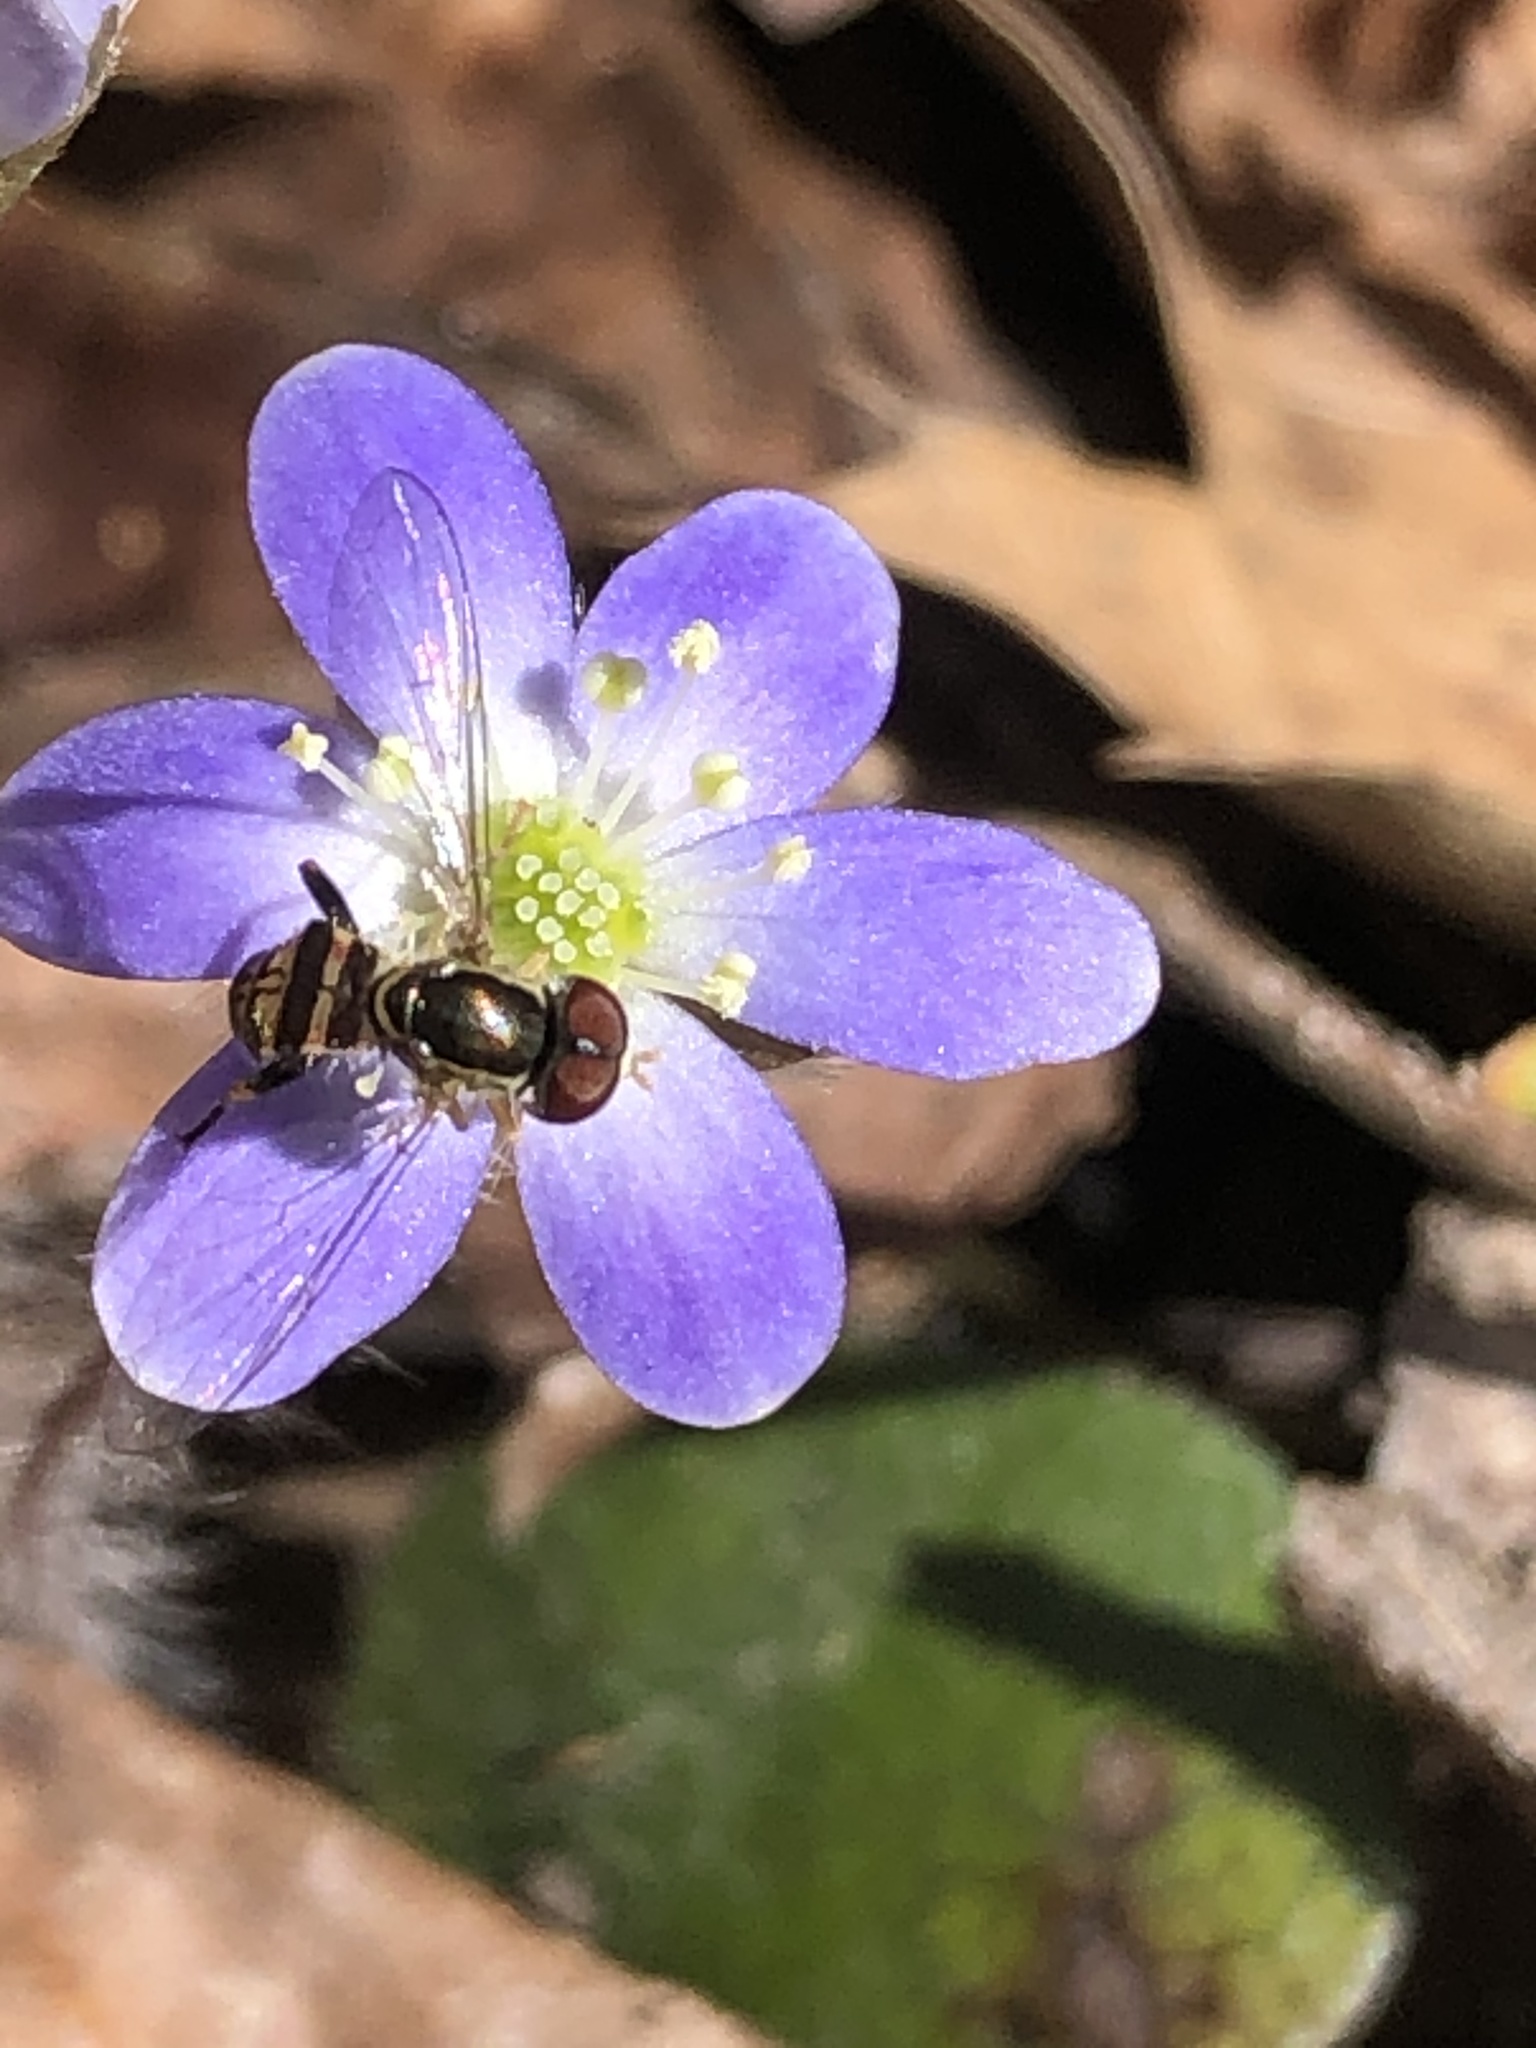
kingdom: Plantae
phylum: Tracheophyta
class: Magnoliopsida
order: Ranunculales
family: Ranunculaceae
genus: Hepatica
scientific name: Hepatica americana
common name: American hepatica
